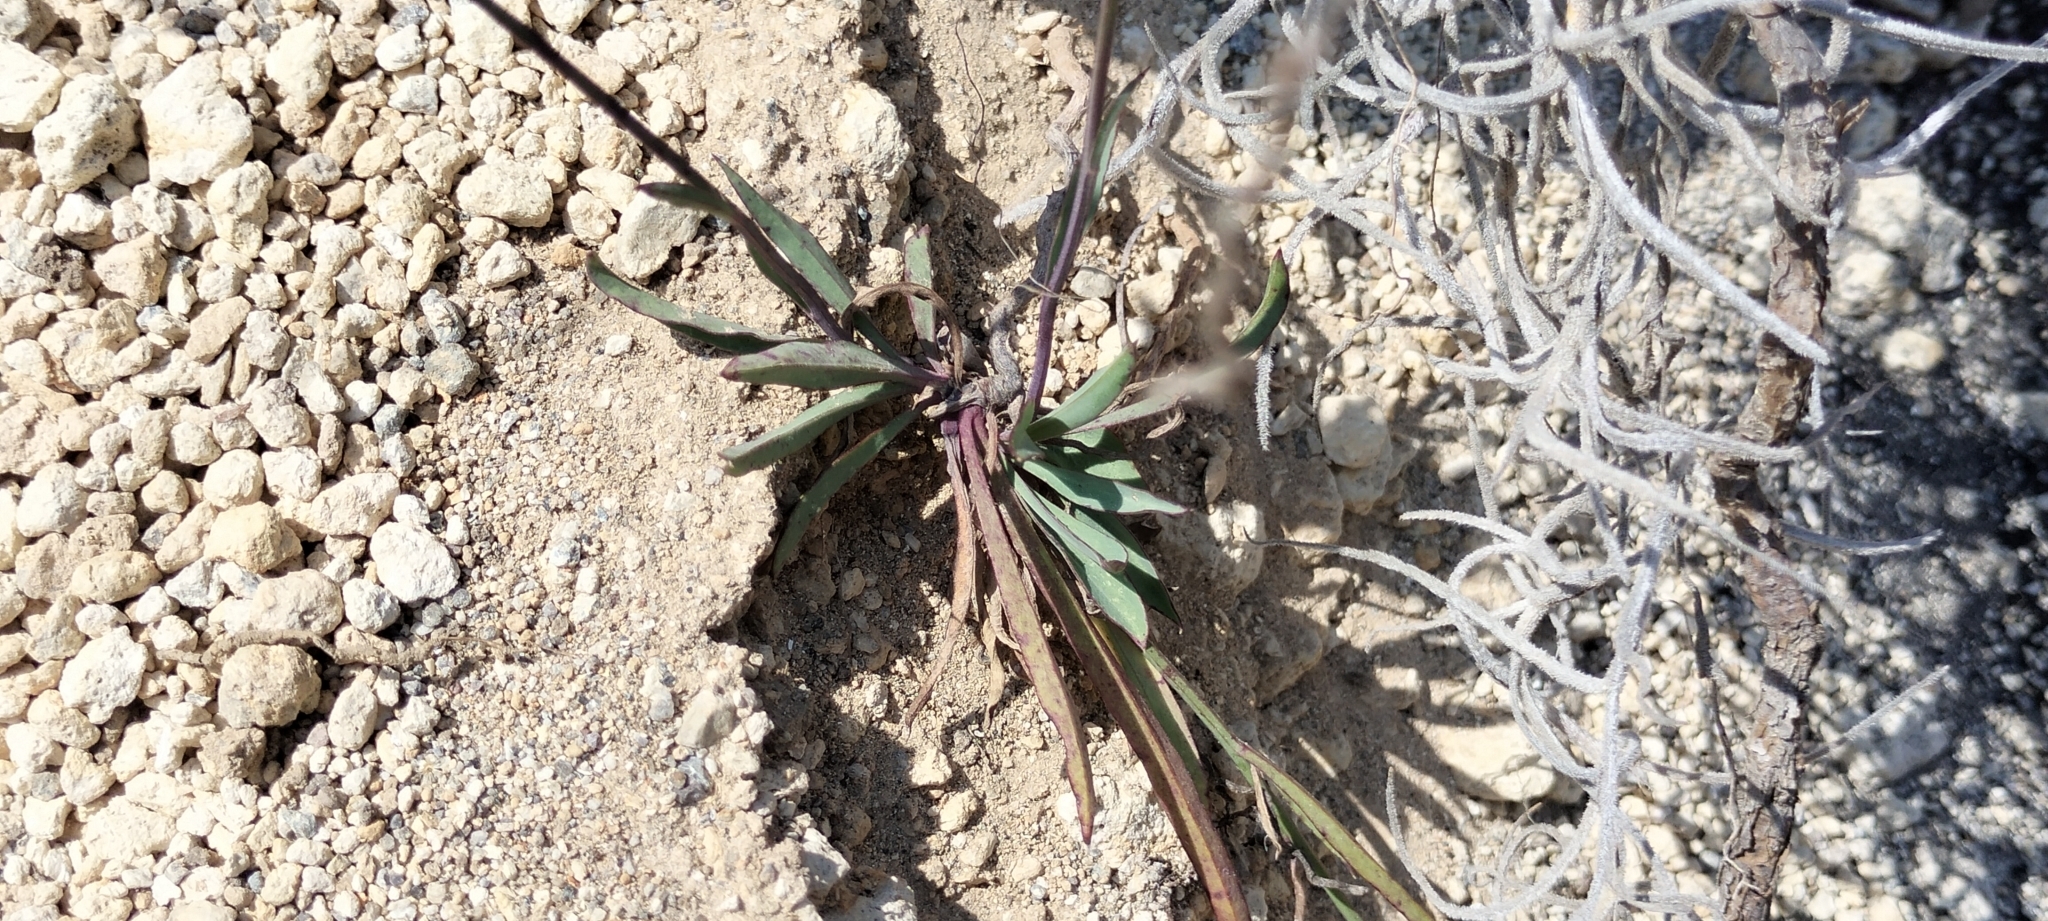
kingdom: Plantae
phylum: Tracheophyta
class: Magnoliopsida
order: Asterales
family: Asteraceae
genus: Pinaropappus
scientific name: Pinaropappus roseus
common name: Rock-lettuce
